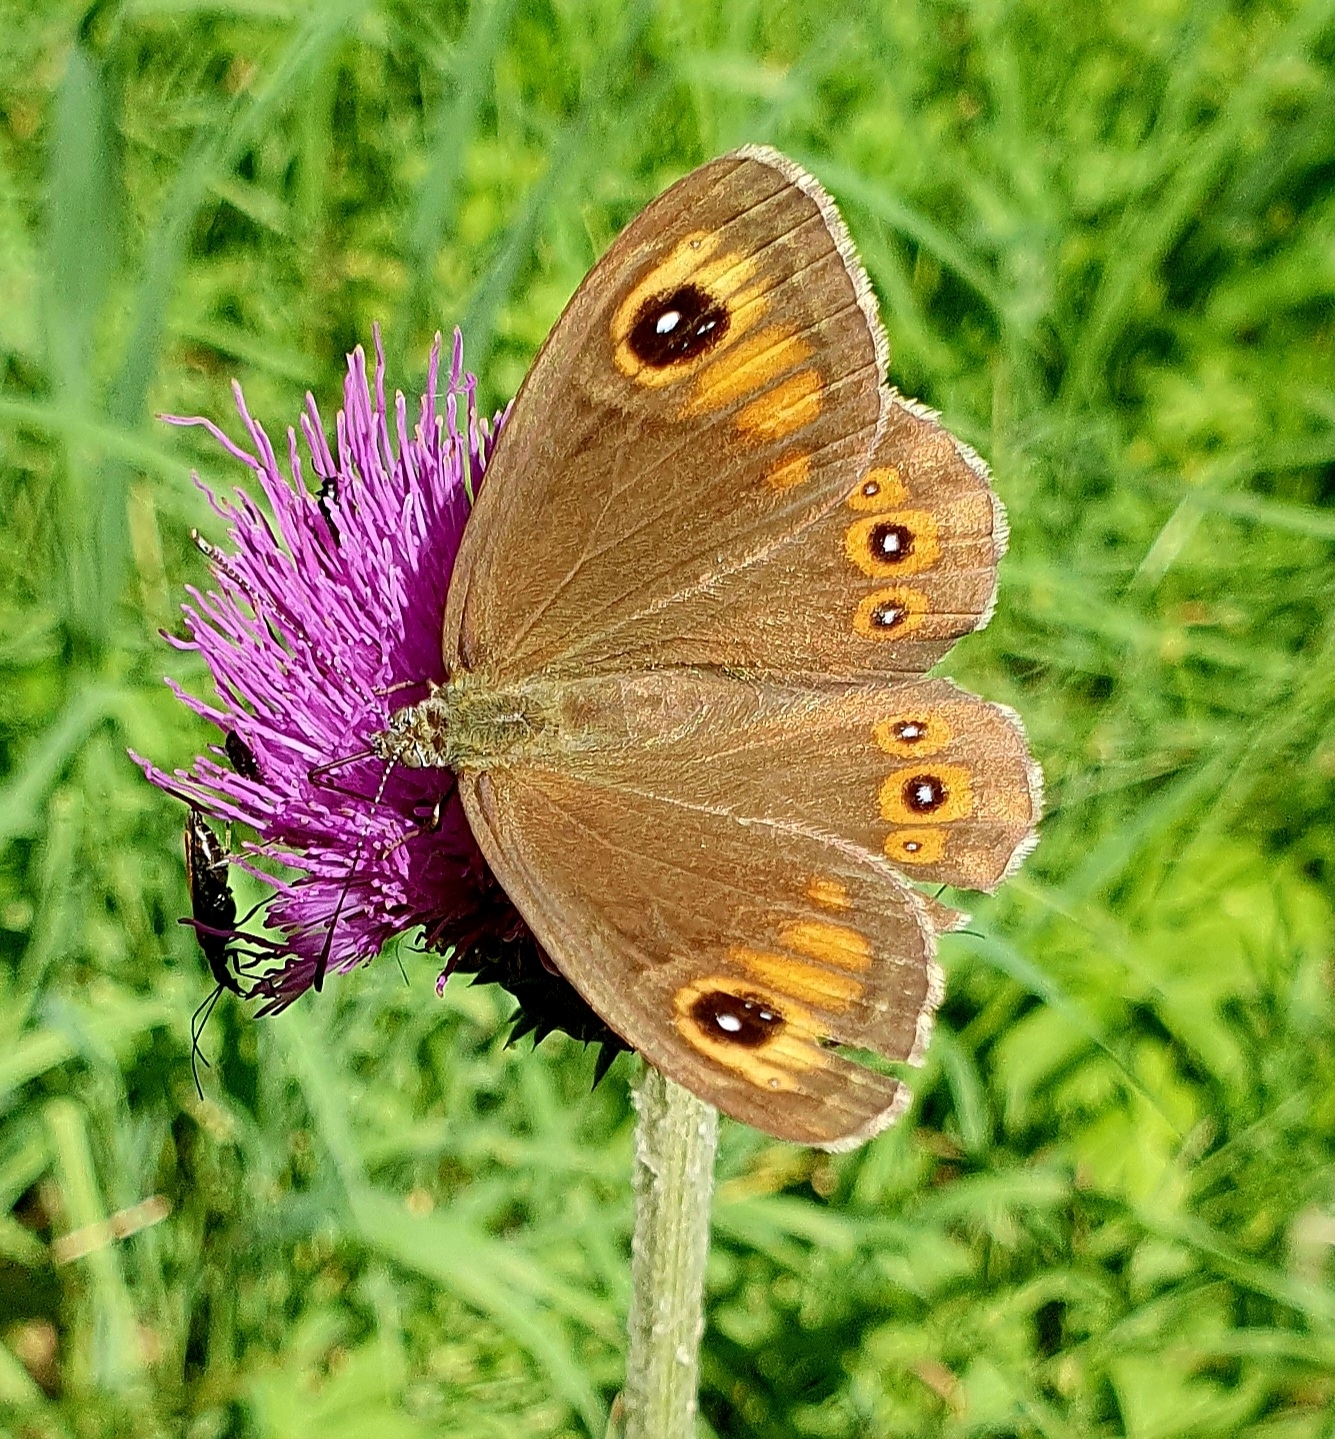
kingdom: Animalia
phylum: Arthropoda
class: Insecta
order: Lepidoptera
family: Nymphalidae
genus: Pararge
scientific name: Pararge Lasiommata maera
